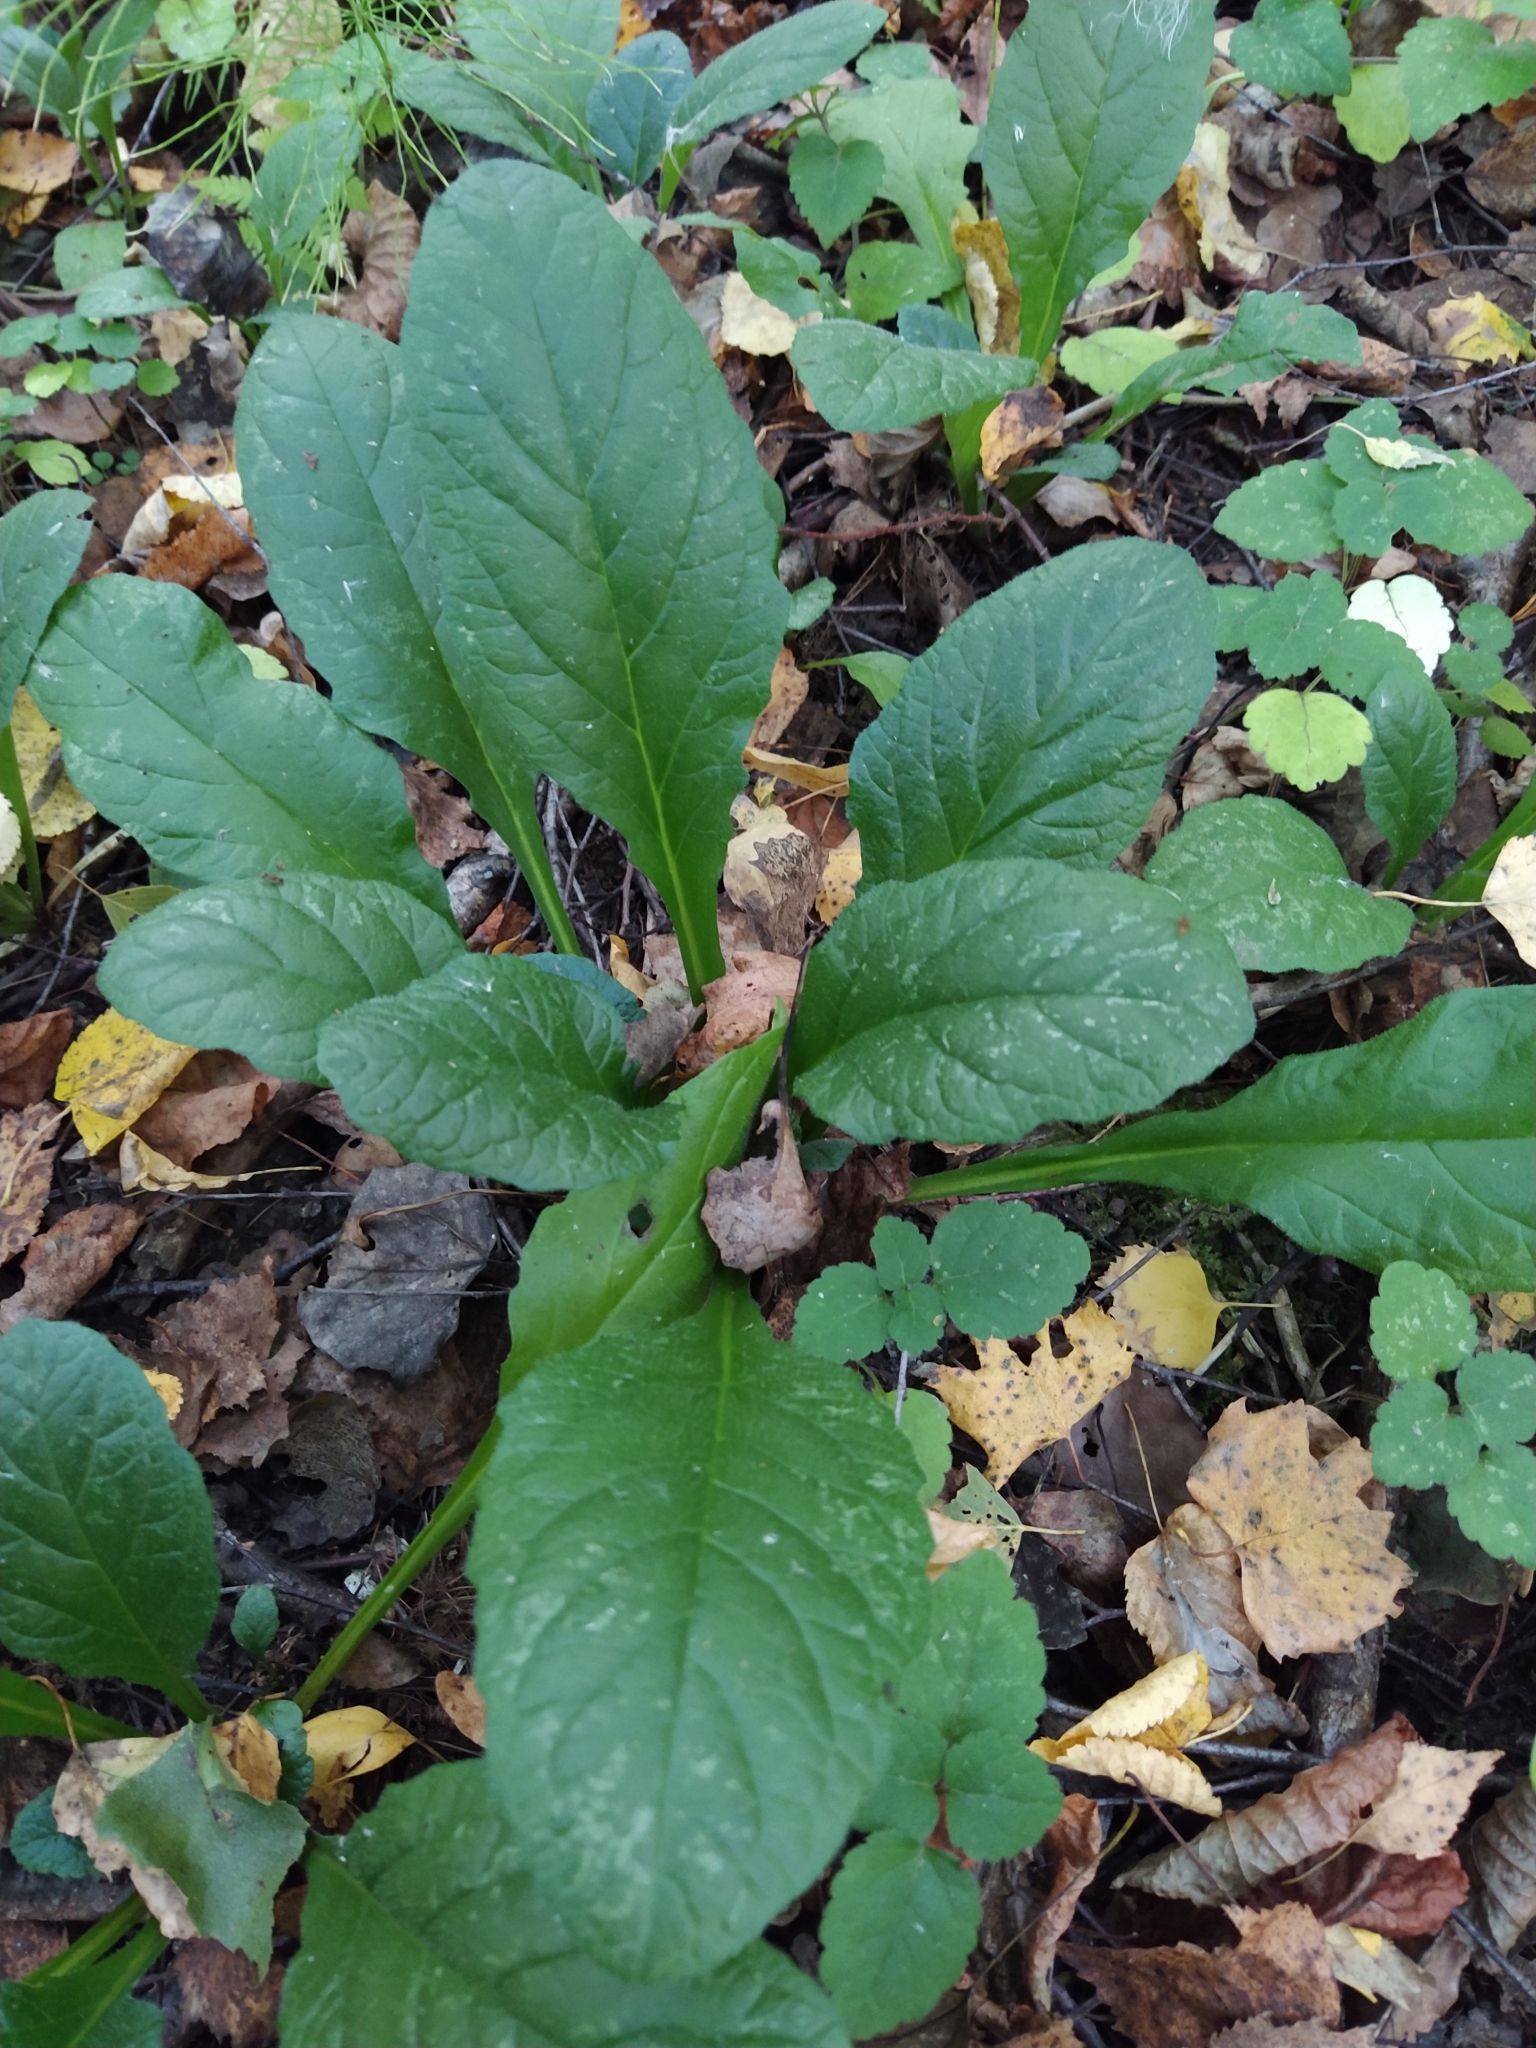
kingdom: Plantae
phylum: Tracheophyta
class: Magnoliopsida
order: Lamiales
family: Lamiaceae
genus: Ajuga
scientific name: Ajuga reptans
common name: Bugle
